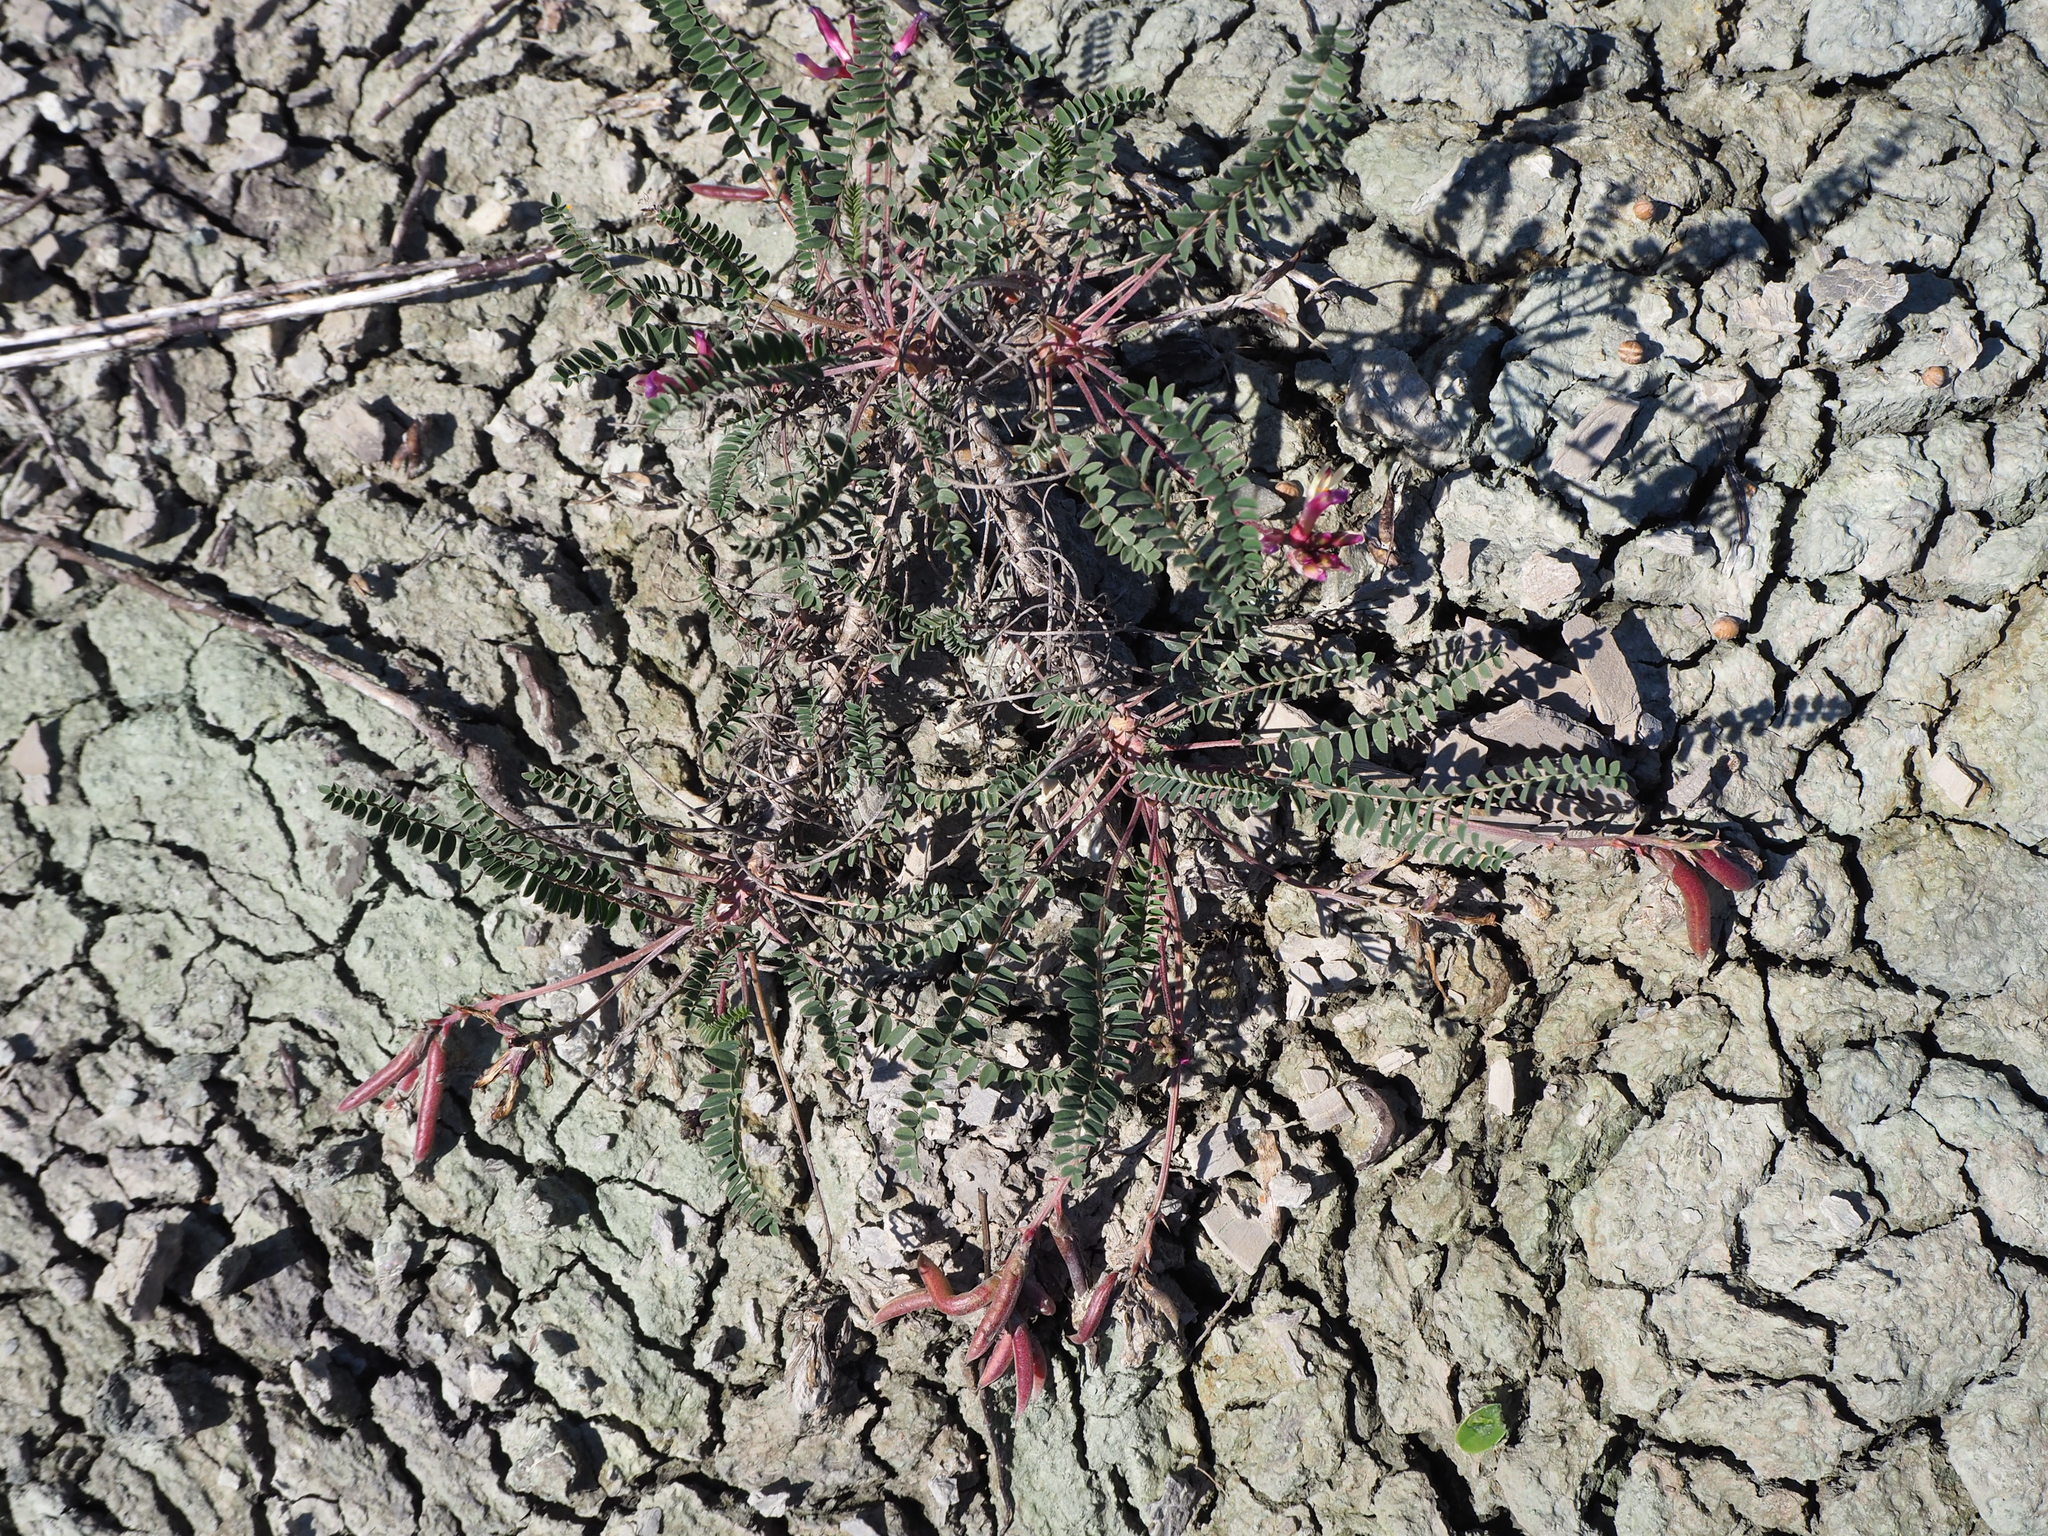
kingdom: Plantae
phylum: Tracheophyta
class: Magnoliopsida
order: Fabales
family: Fabaceae
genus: Astragalus
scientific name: Astragalus monspessulanus
